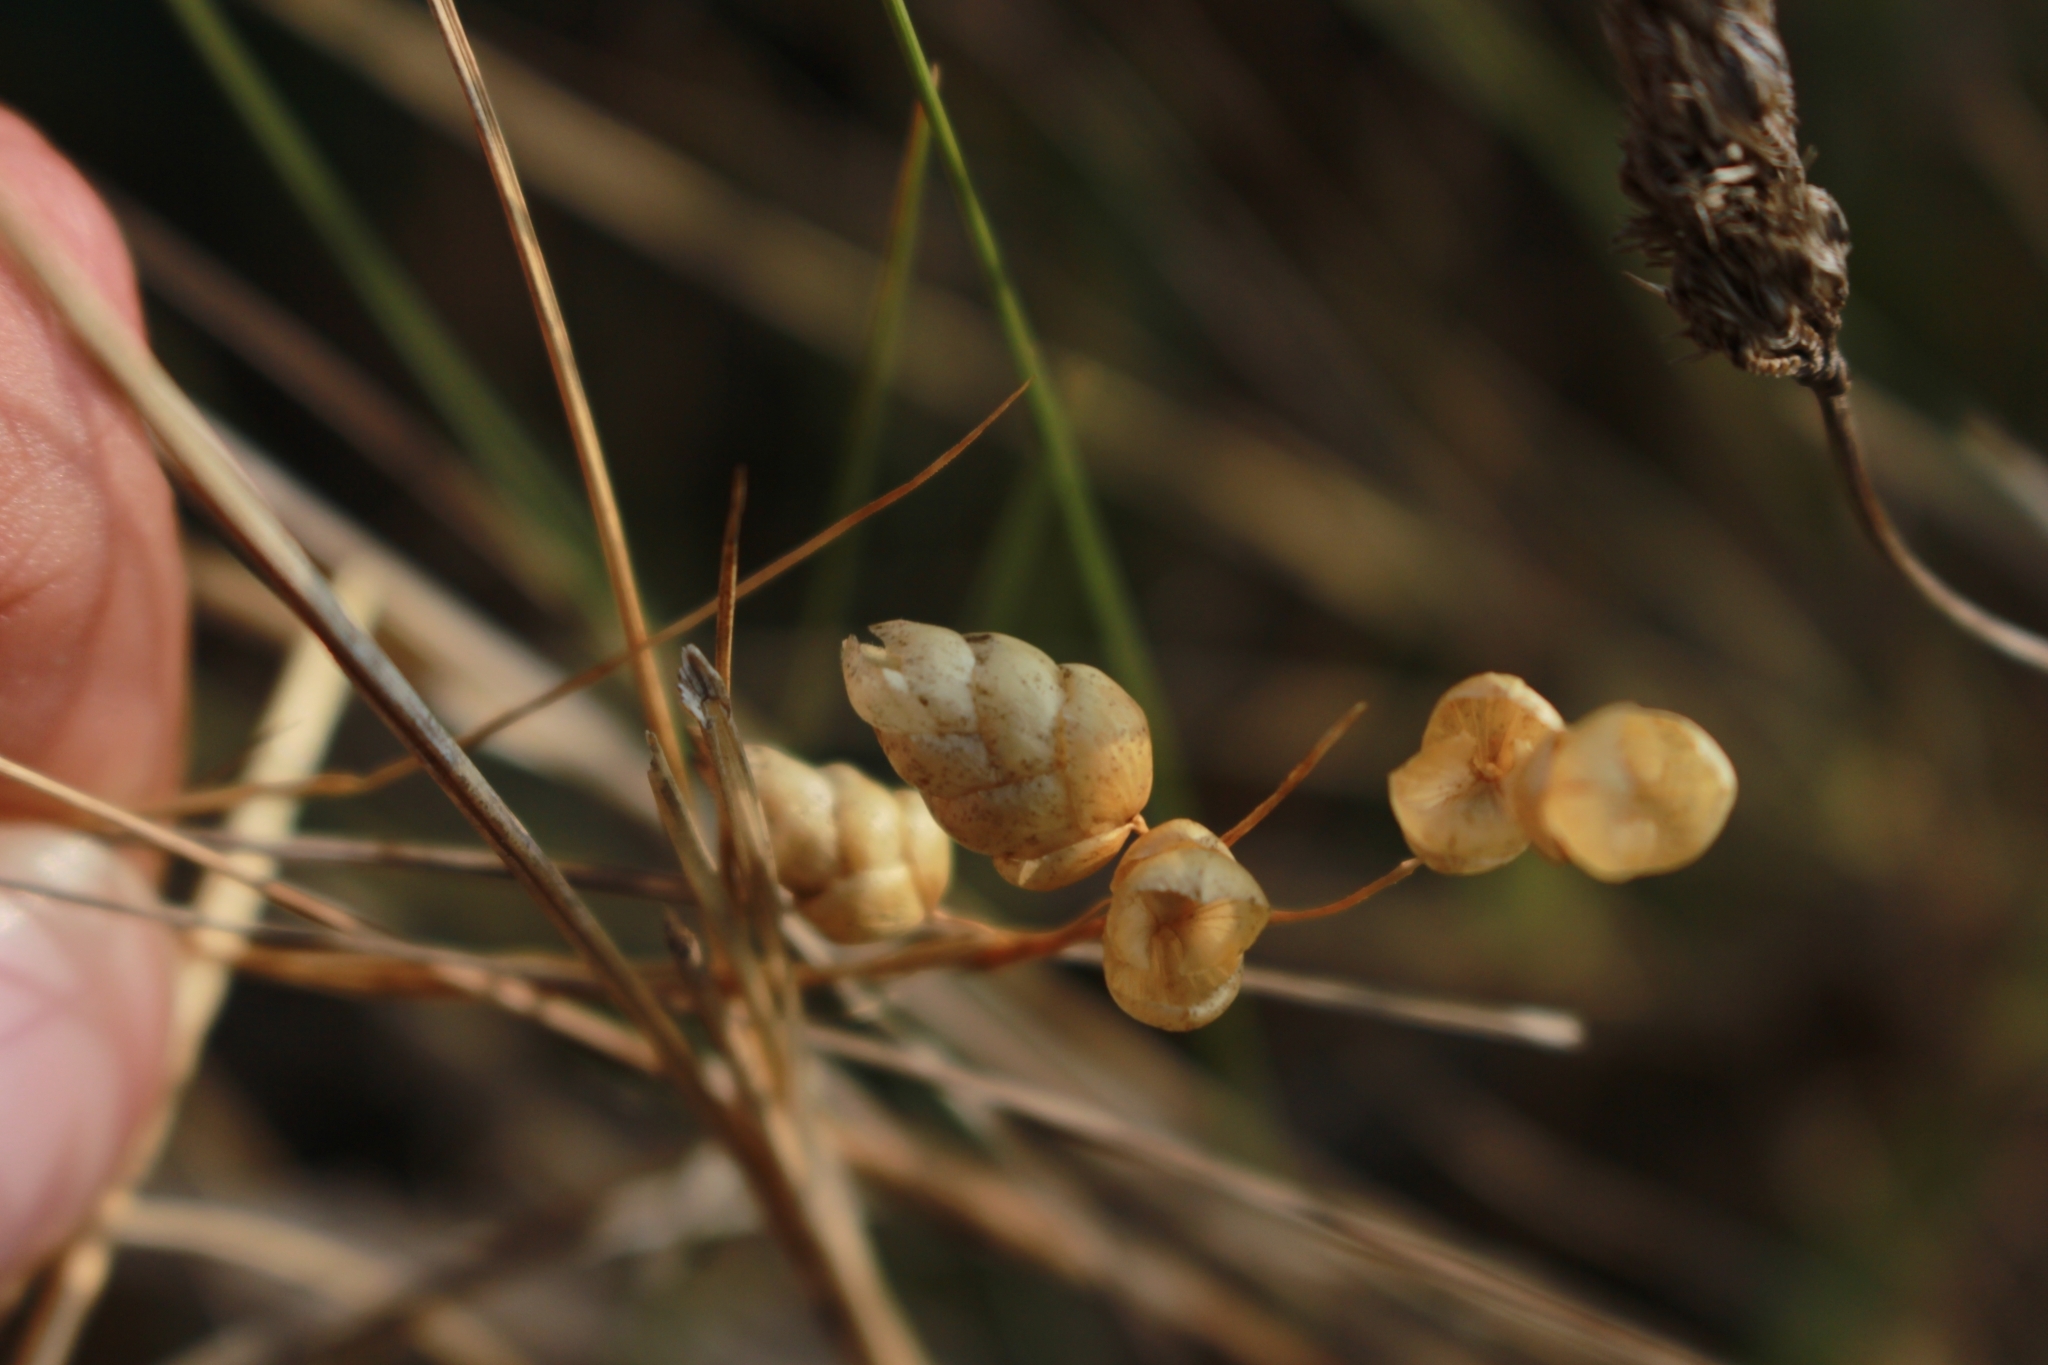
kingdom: Plantae
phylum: Tracheophyta
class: Liliopsida
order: Poales
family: Poaceae
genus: Briza
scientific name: Briza maxima
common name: Big quakinggrass
